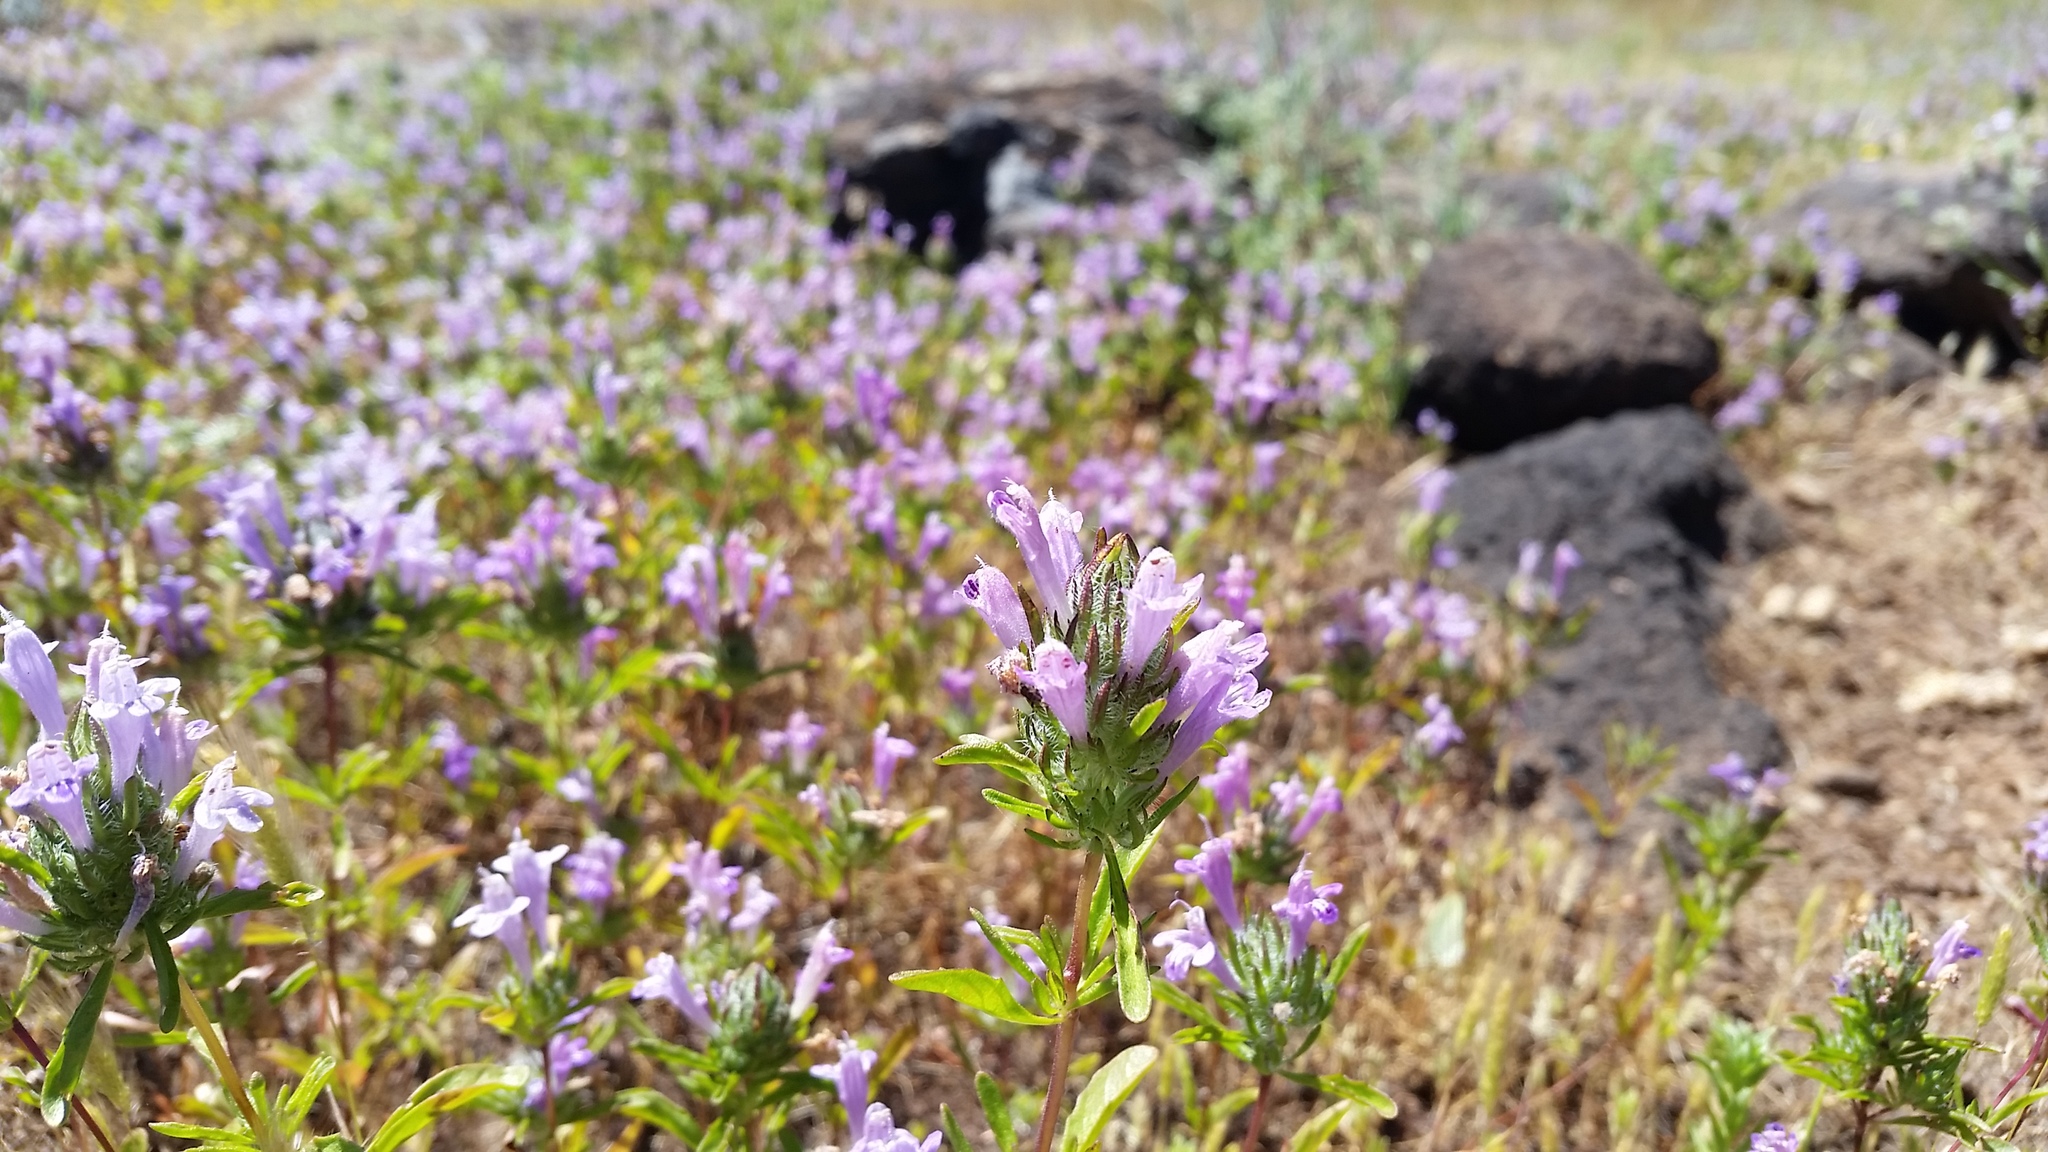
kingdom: Plantae
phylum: Tracheophyta
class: Magnoliopsida
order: Lamiales
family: Lamiaceae
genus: Prunella
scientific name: Prunella vulgaris
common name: Heal-all
